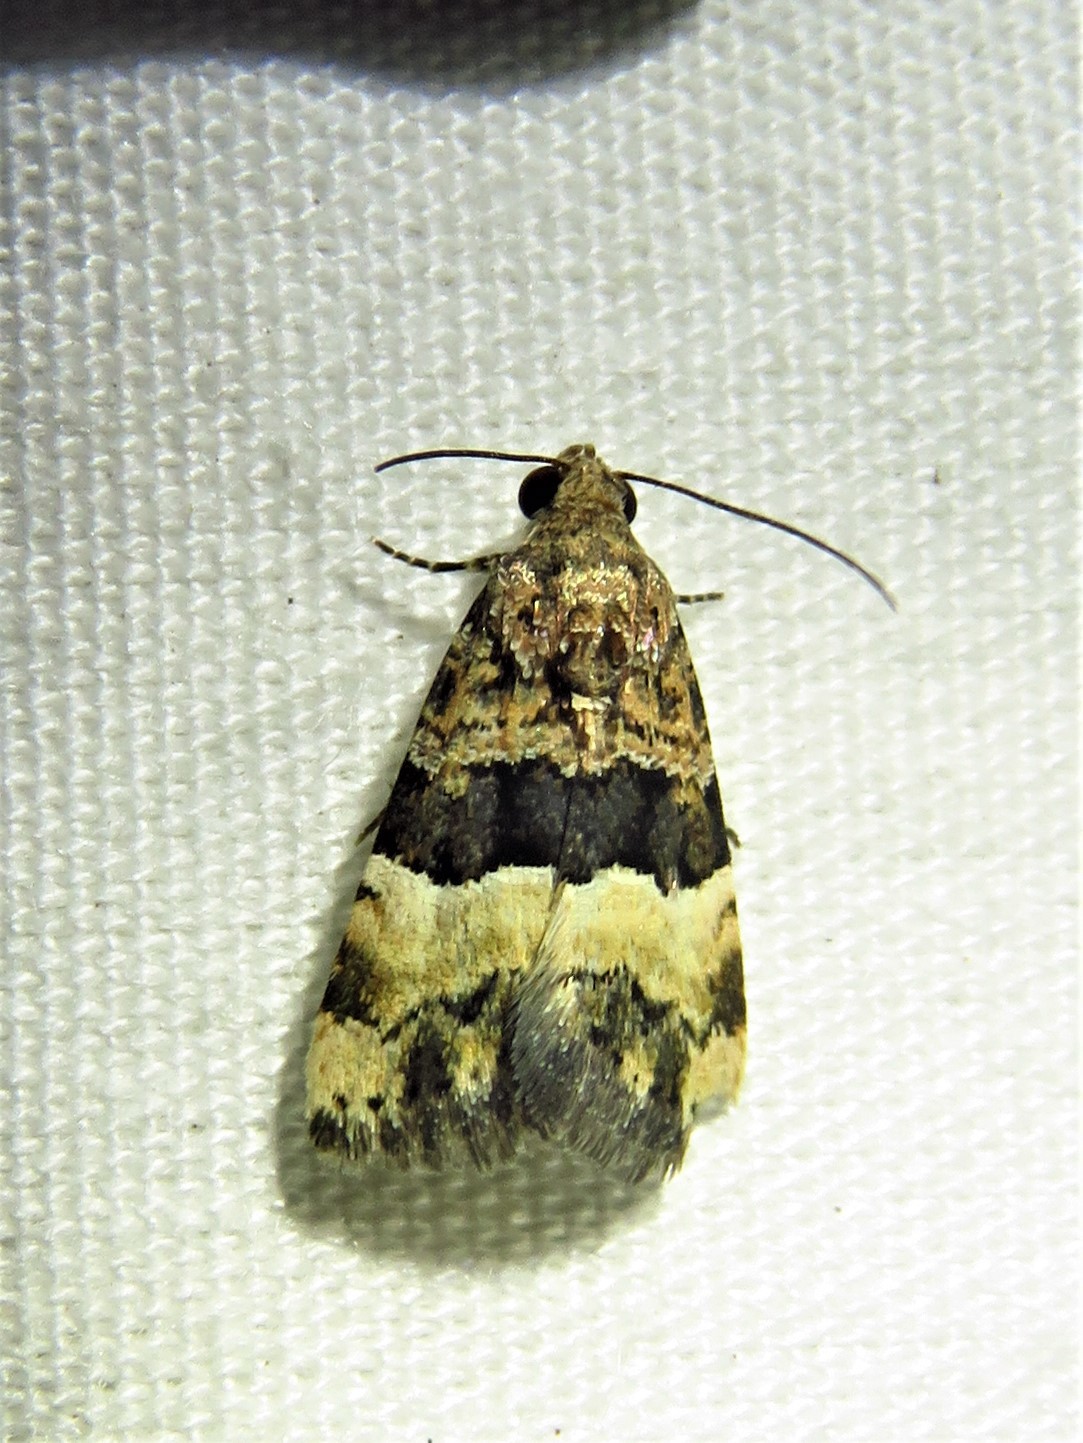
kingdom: Animalia
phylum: Arthropoda
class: Insecta
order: Lepidoptera
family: Noctuidae
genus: Pseudozarba
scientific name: Pseudozarba bipartita
